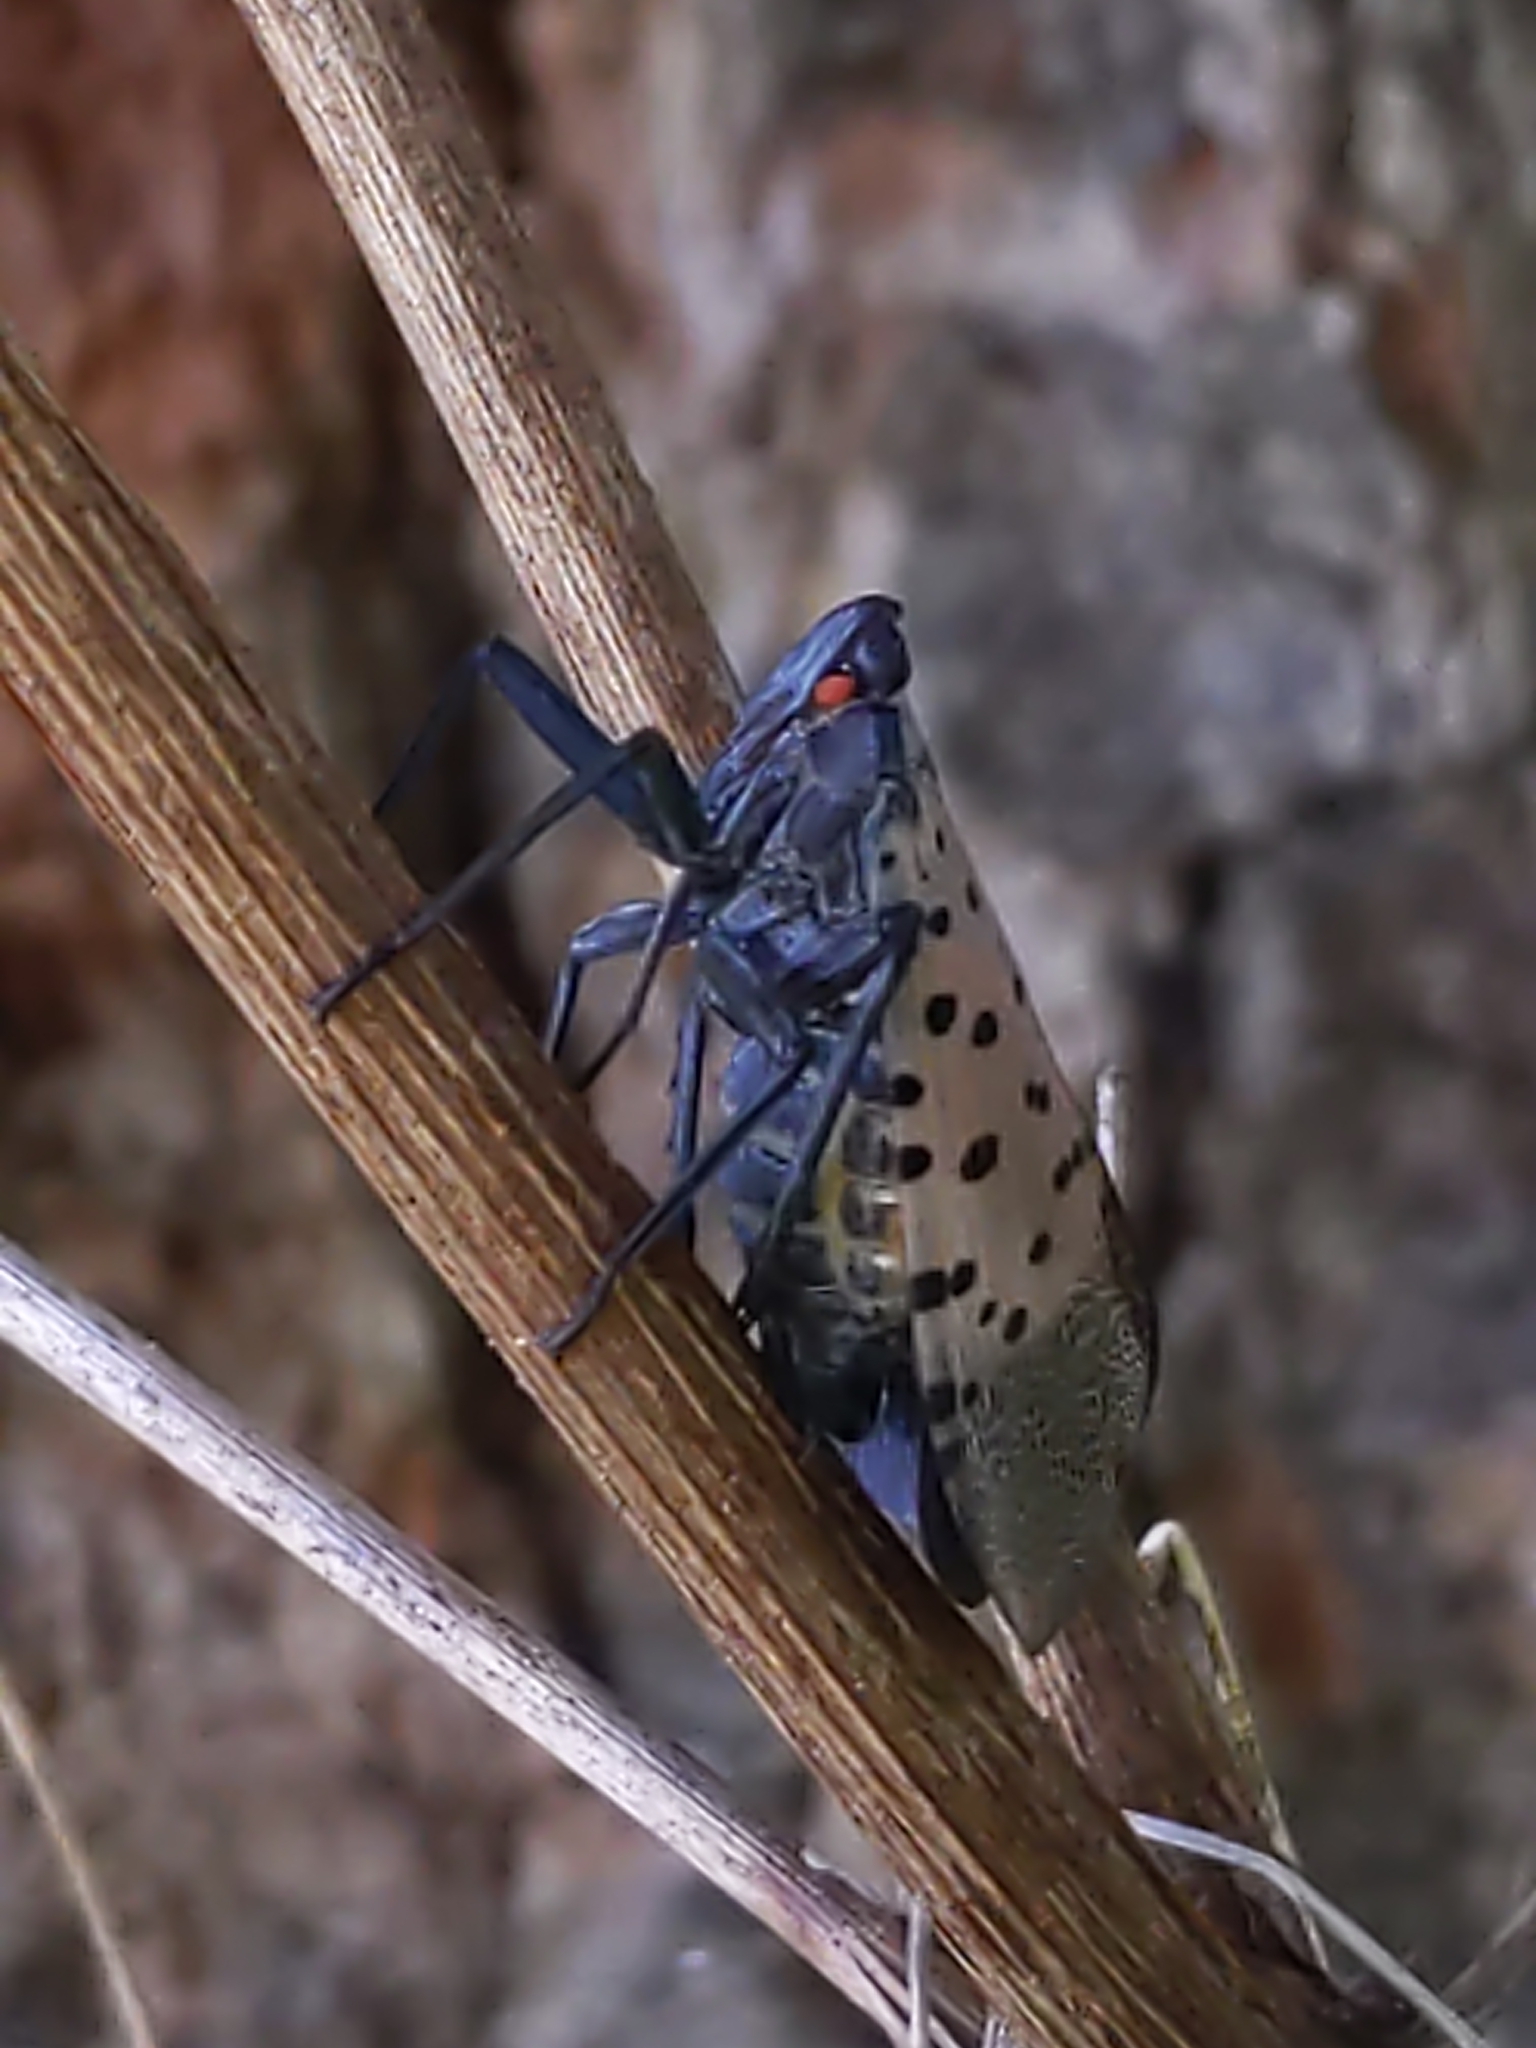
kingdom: Animalia
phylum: Arthropoda
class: Insecta
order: Hemiptera
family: Fulgoridae
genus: Lycorma
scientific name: Lycorma delicatula
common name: Spotted lanternfly
